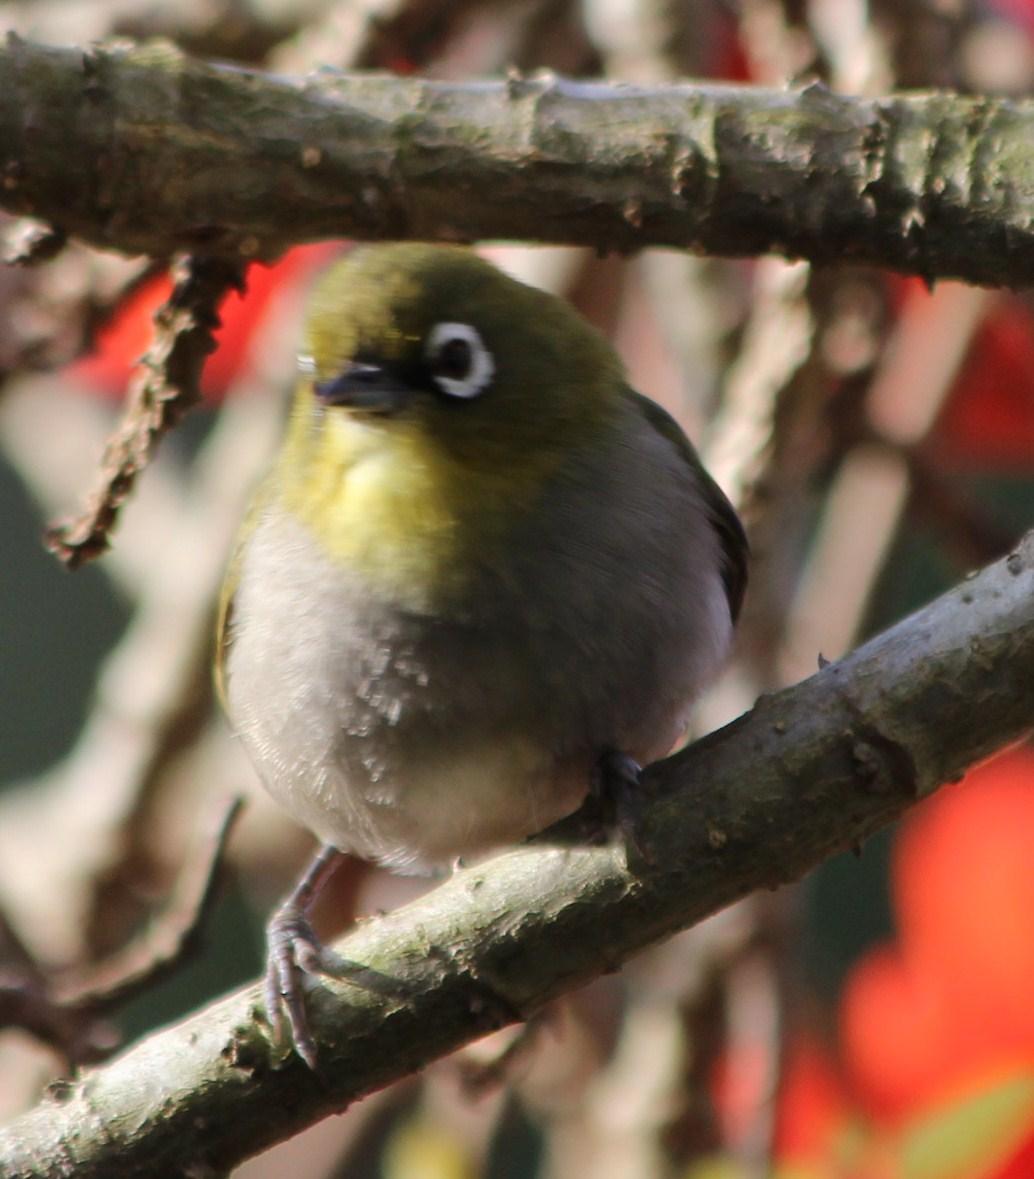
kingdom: Animalia
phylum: Chordata
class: Aves
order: Passeriformes
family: Zosteropidae
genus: Zosterops
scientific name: Zosterops virens
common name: Cape white-eye
